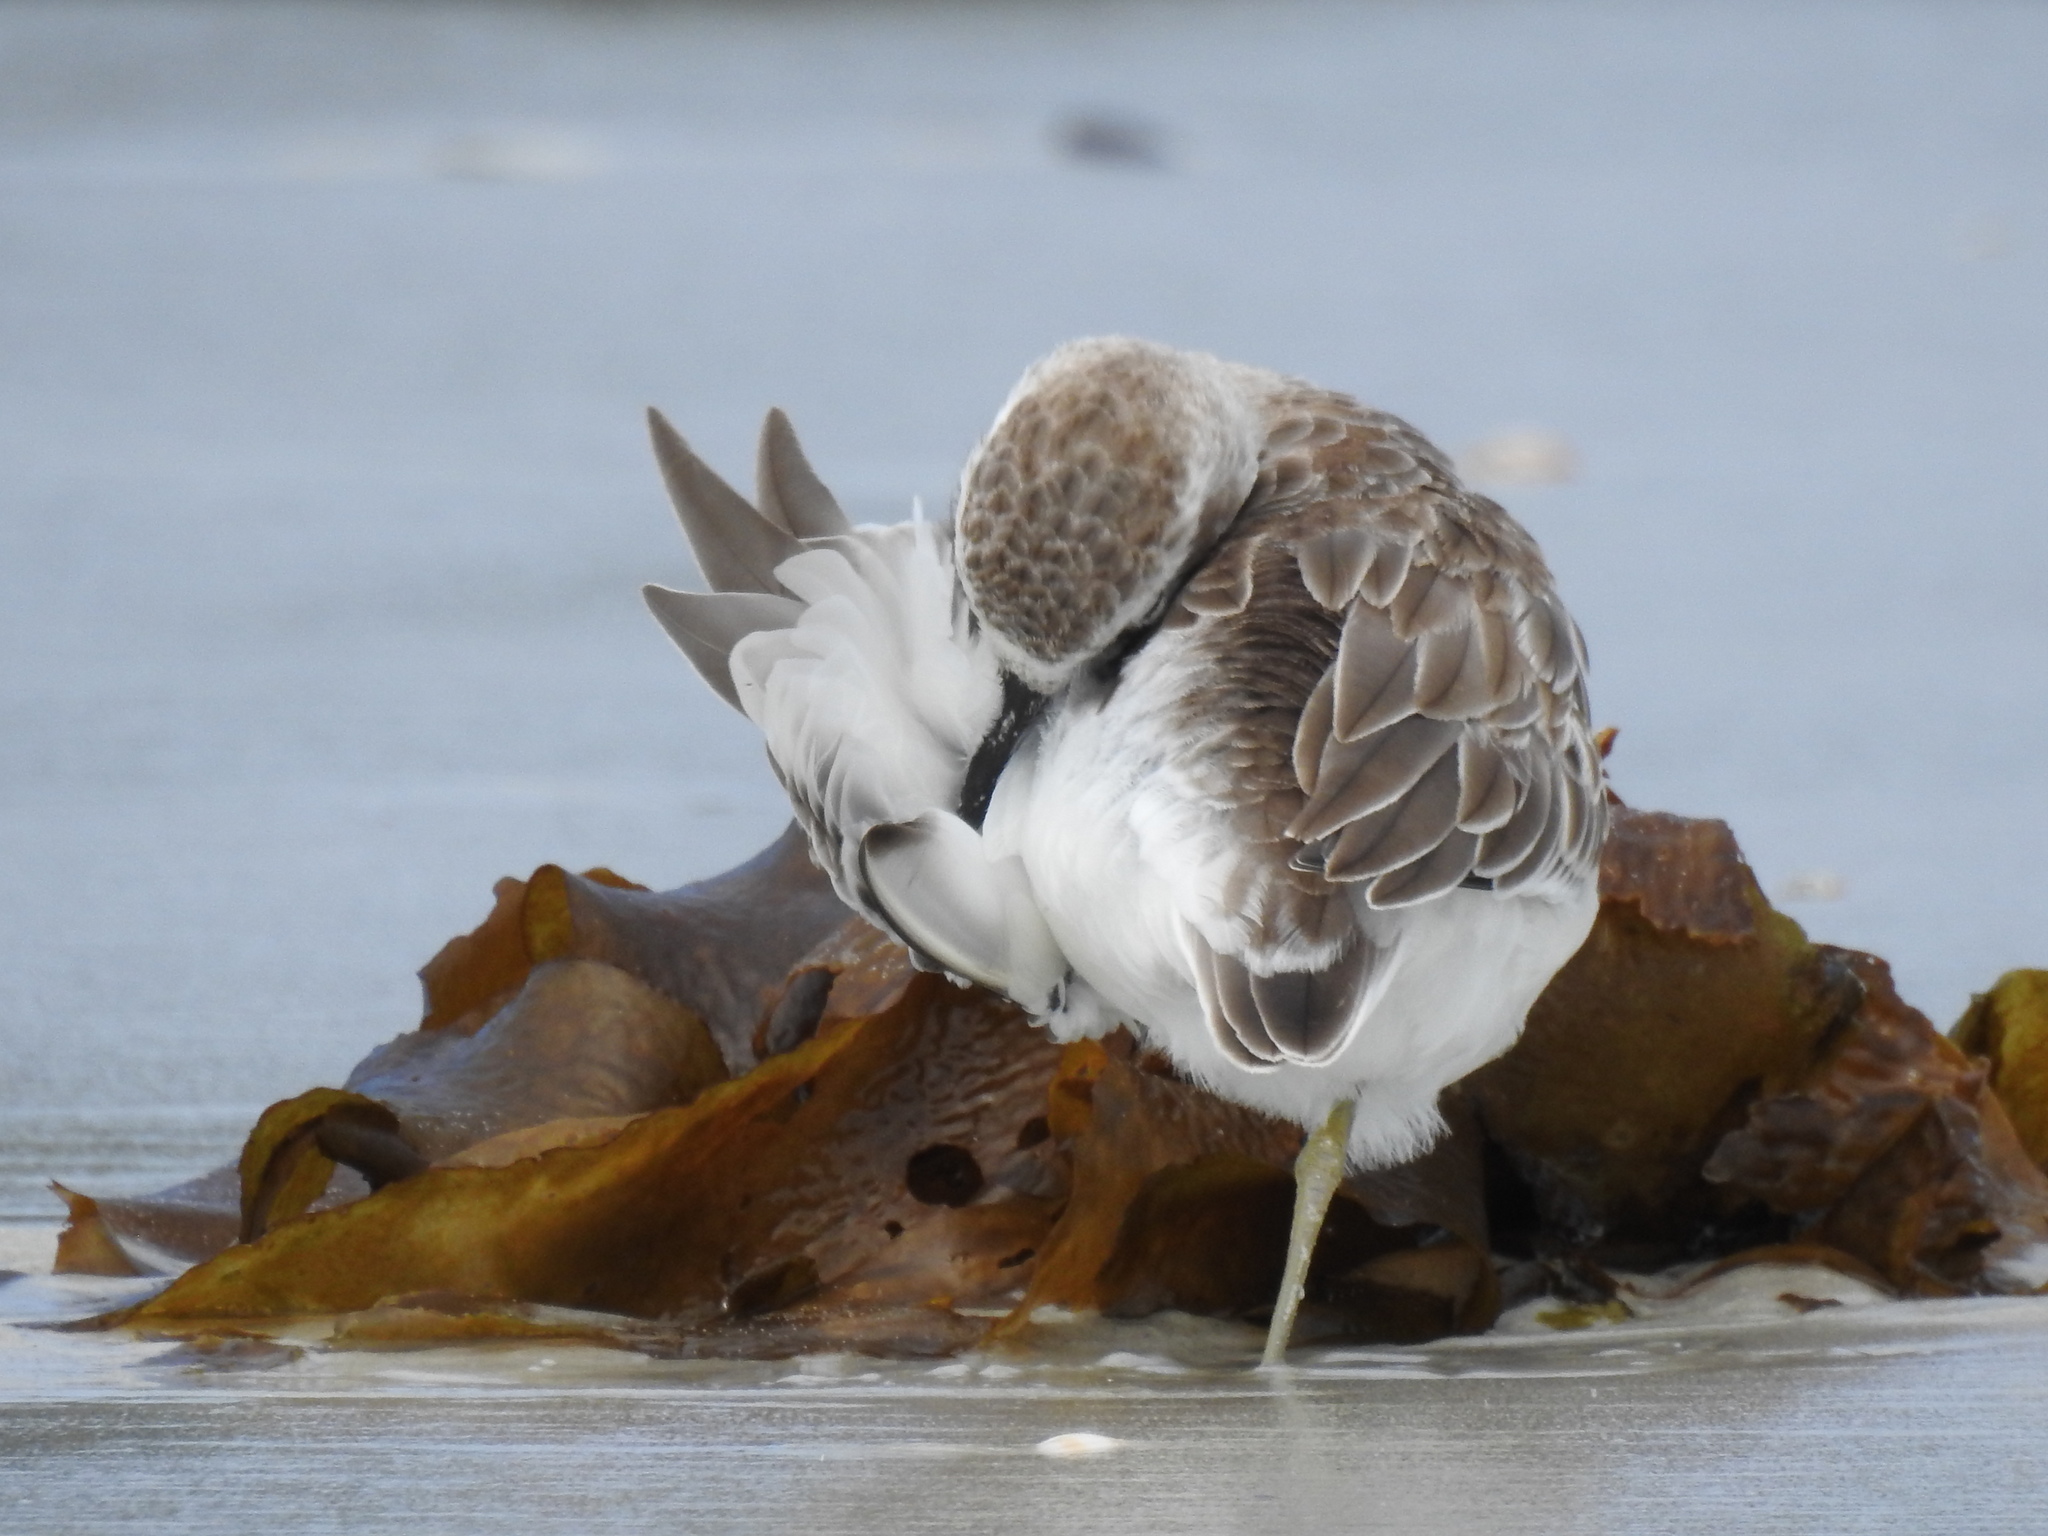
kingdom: Animalia
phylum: Chordata
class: Aves
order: Charadriiformes
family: Charadriidae
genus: Anarhynchus
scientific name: Anarhynchus
